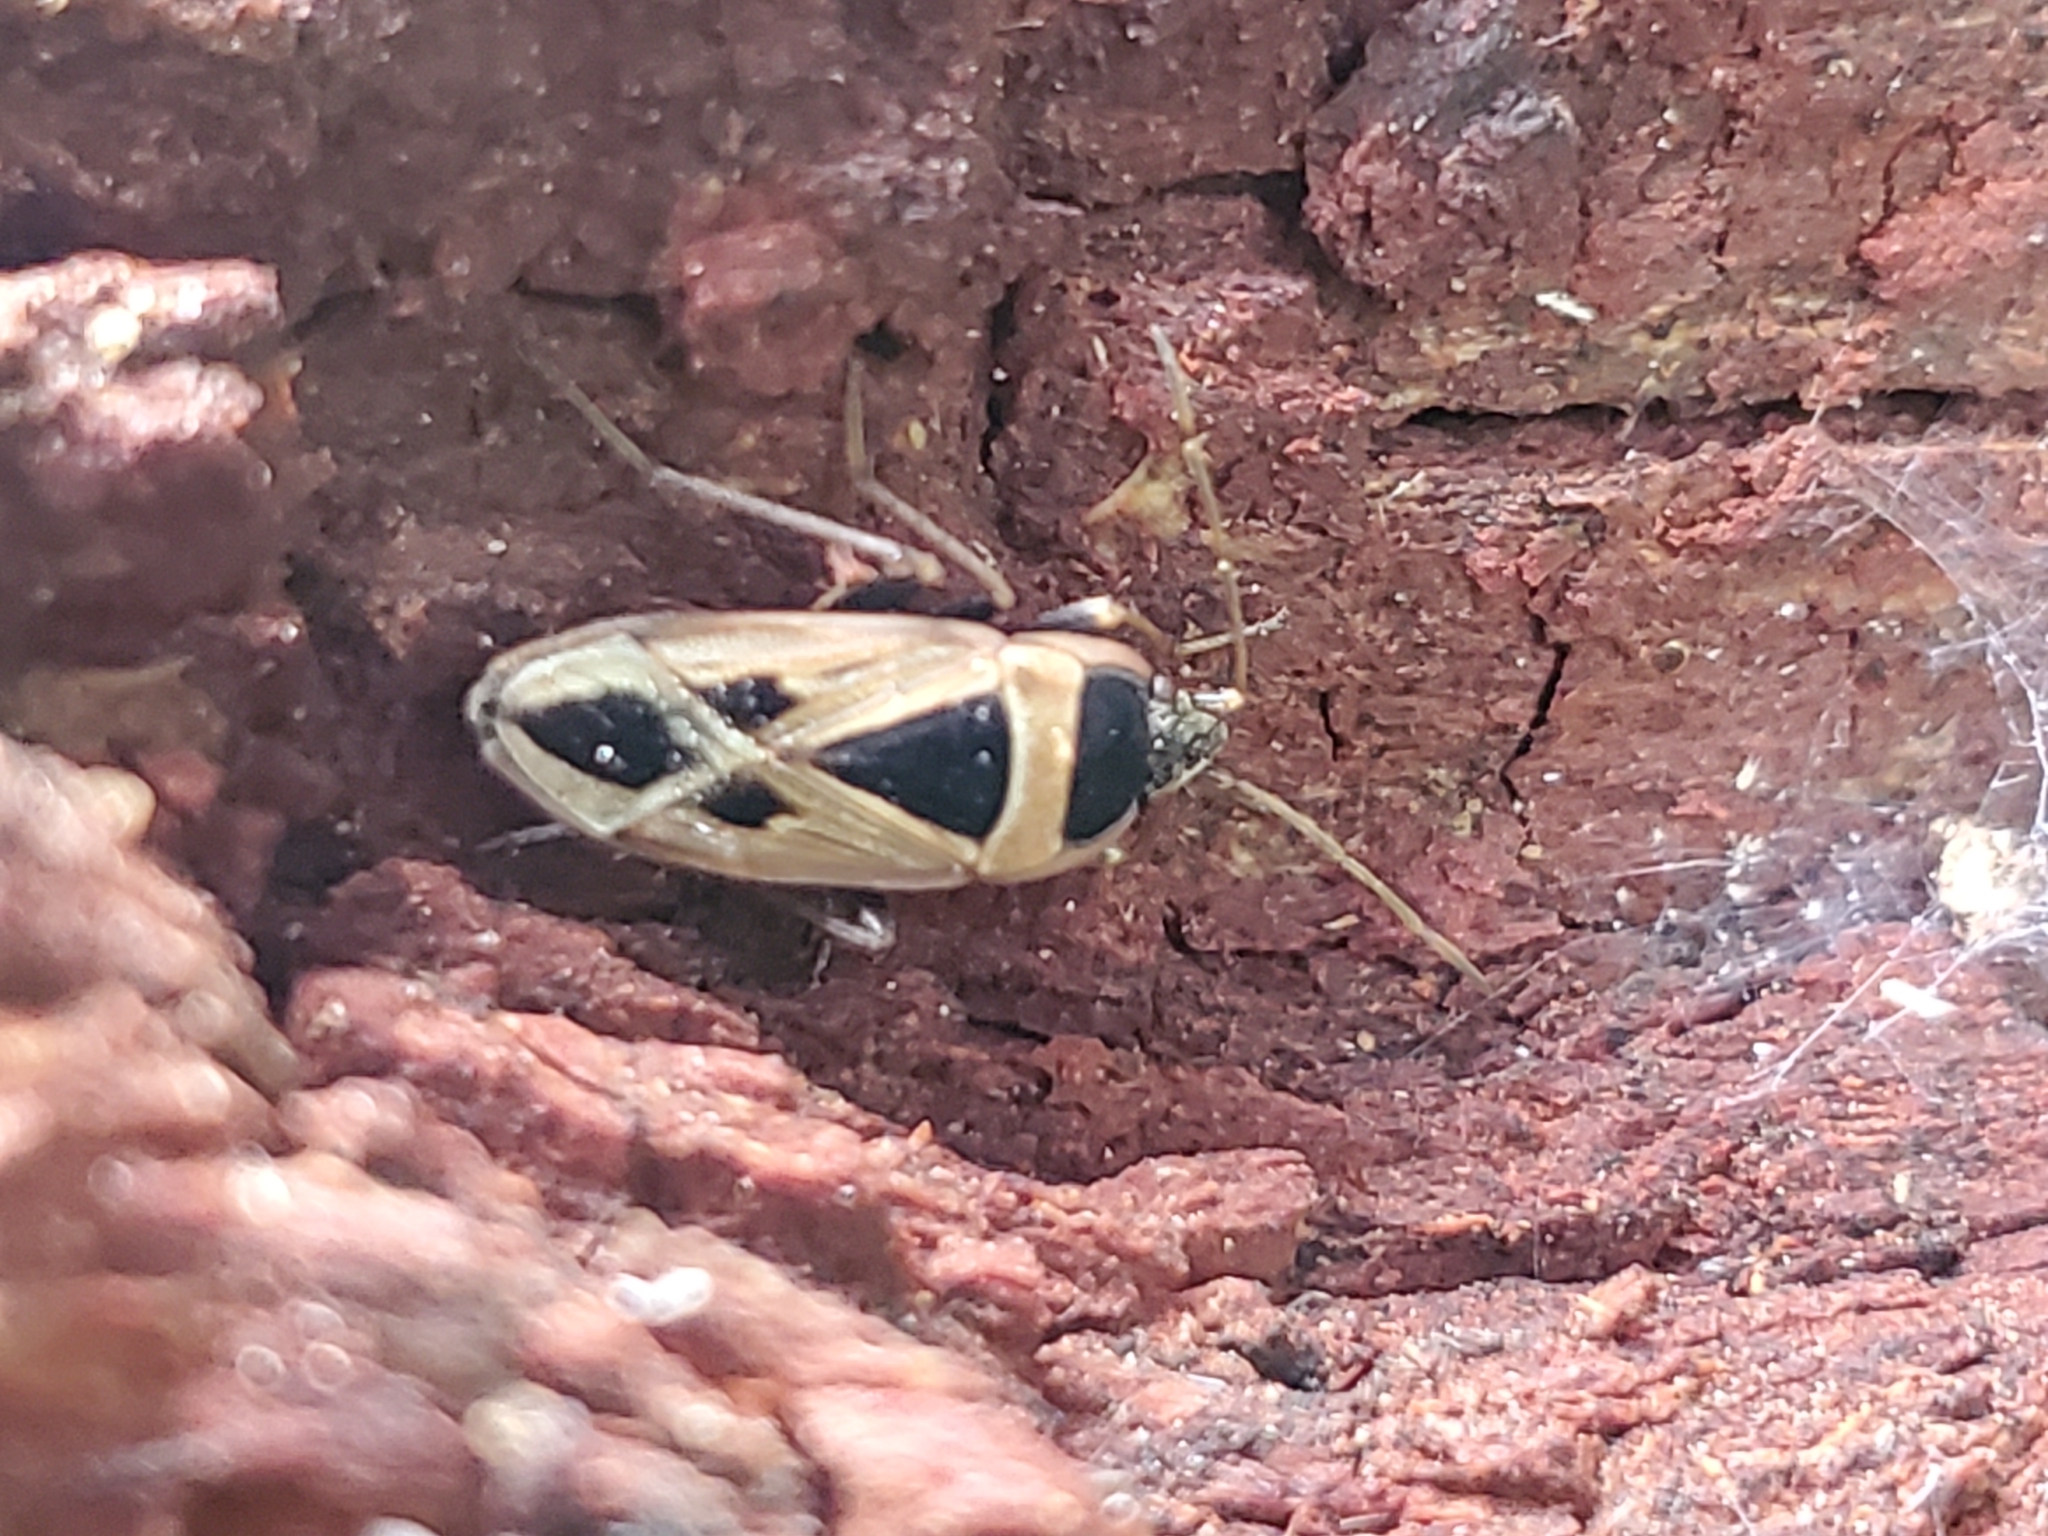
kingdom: Animalia
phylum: Arthropoda
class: Insecta
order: Hemiptera
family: Rhyparochromidae
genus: Xanthochilus
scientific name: Xanthochilus saturnius
